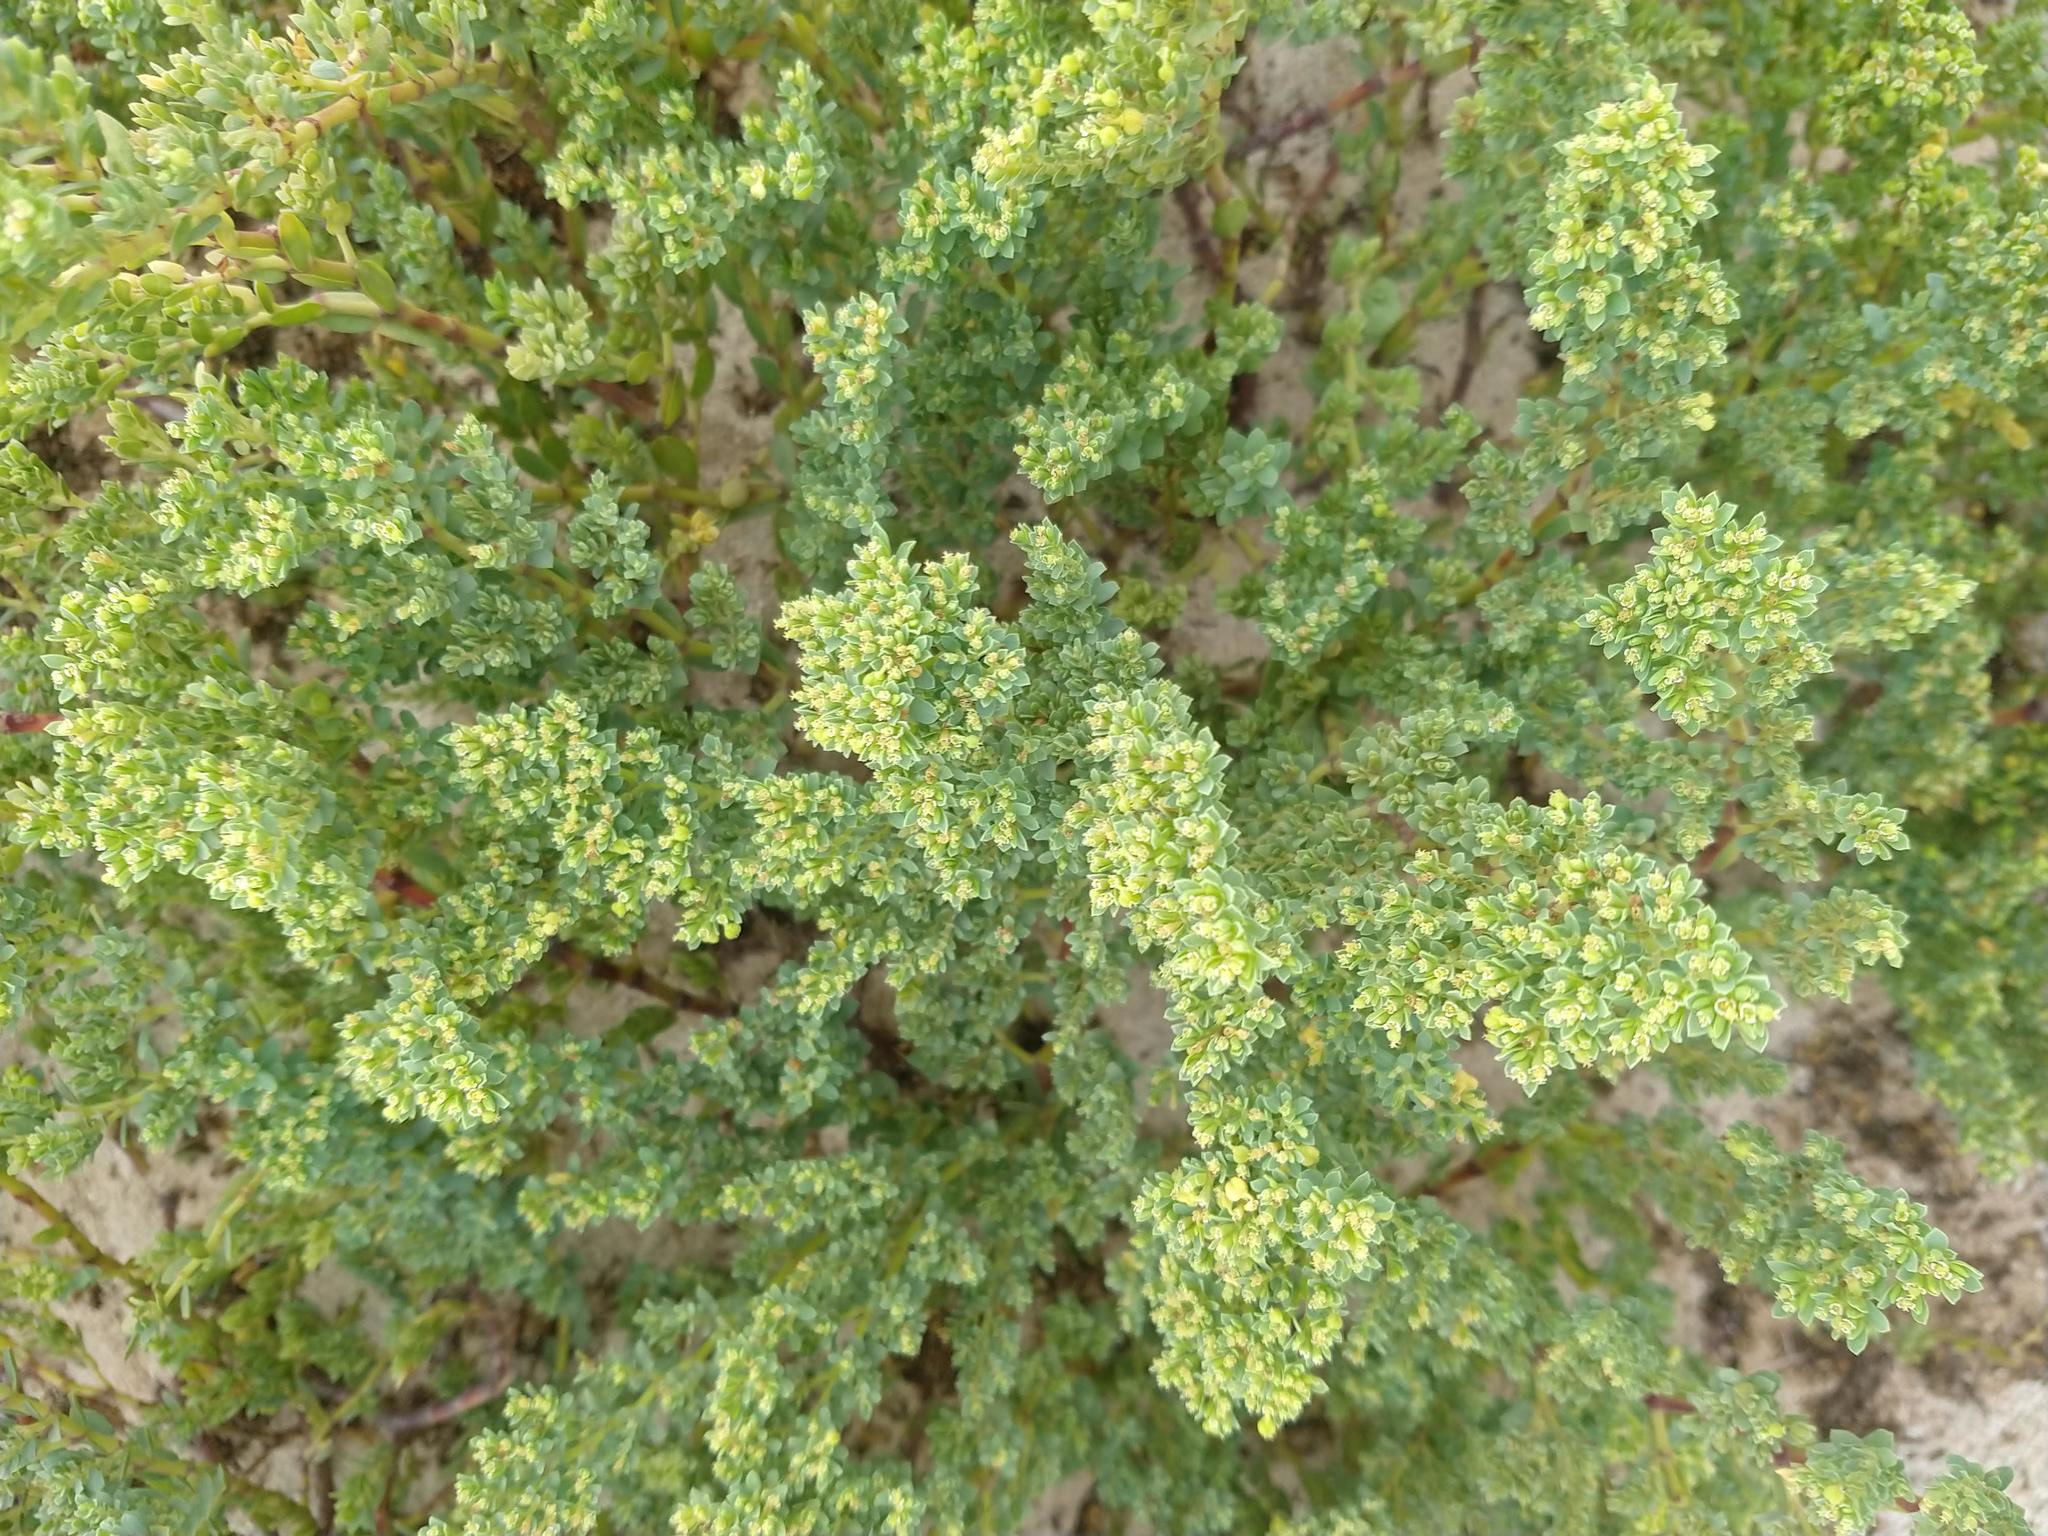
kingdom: Plantae
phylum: Tracheophyta
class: Magnoliopsida
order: Malpighiales
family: Euphorbiaceae
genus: Euphorbia
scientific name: Euphorbia mesembryanthemifolia
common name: Coastal beach sandmat
